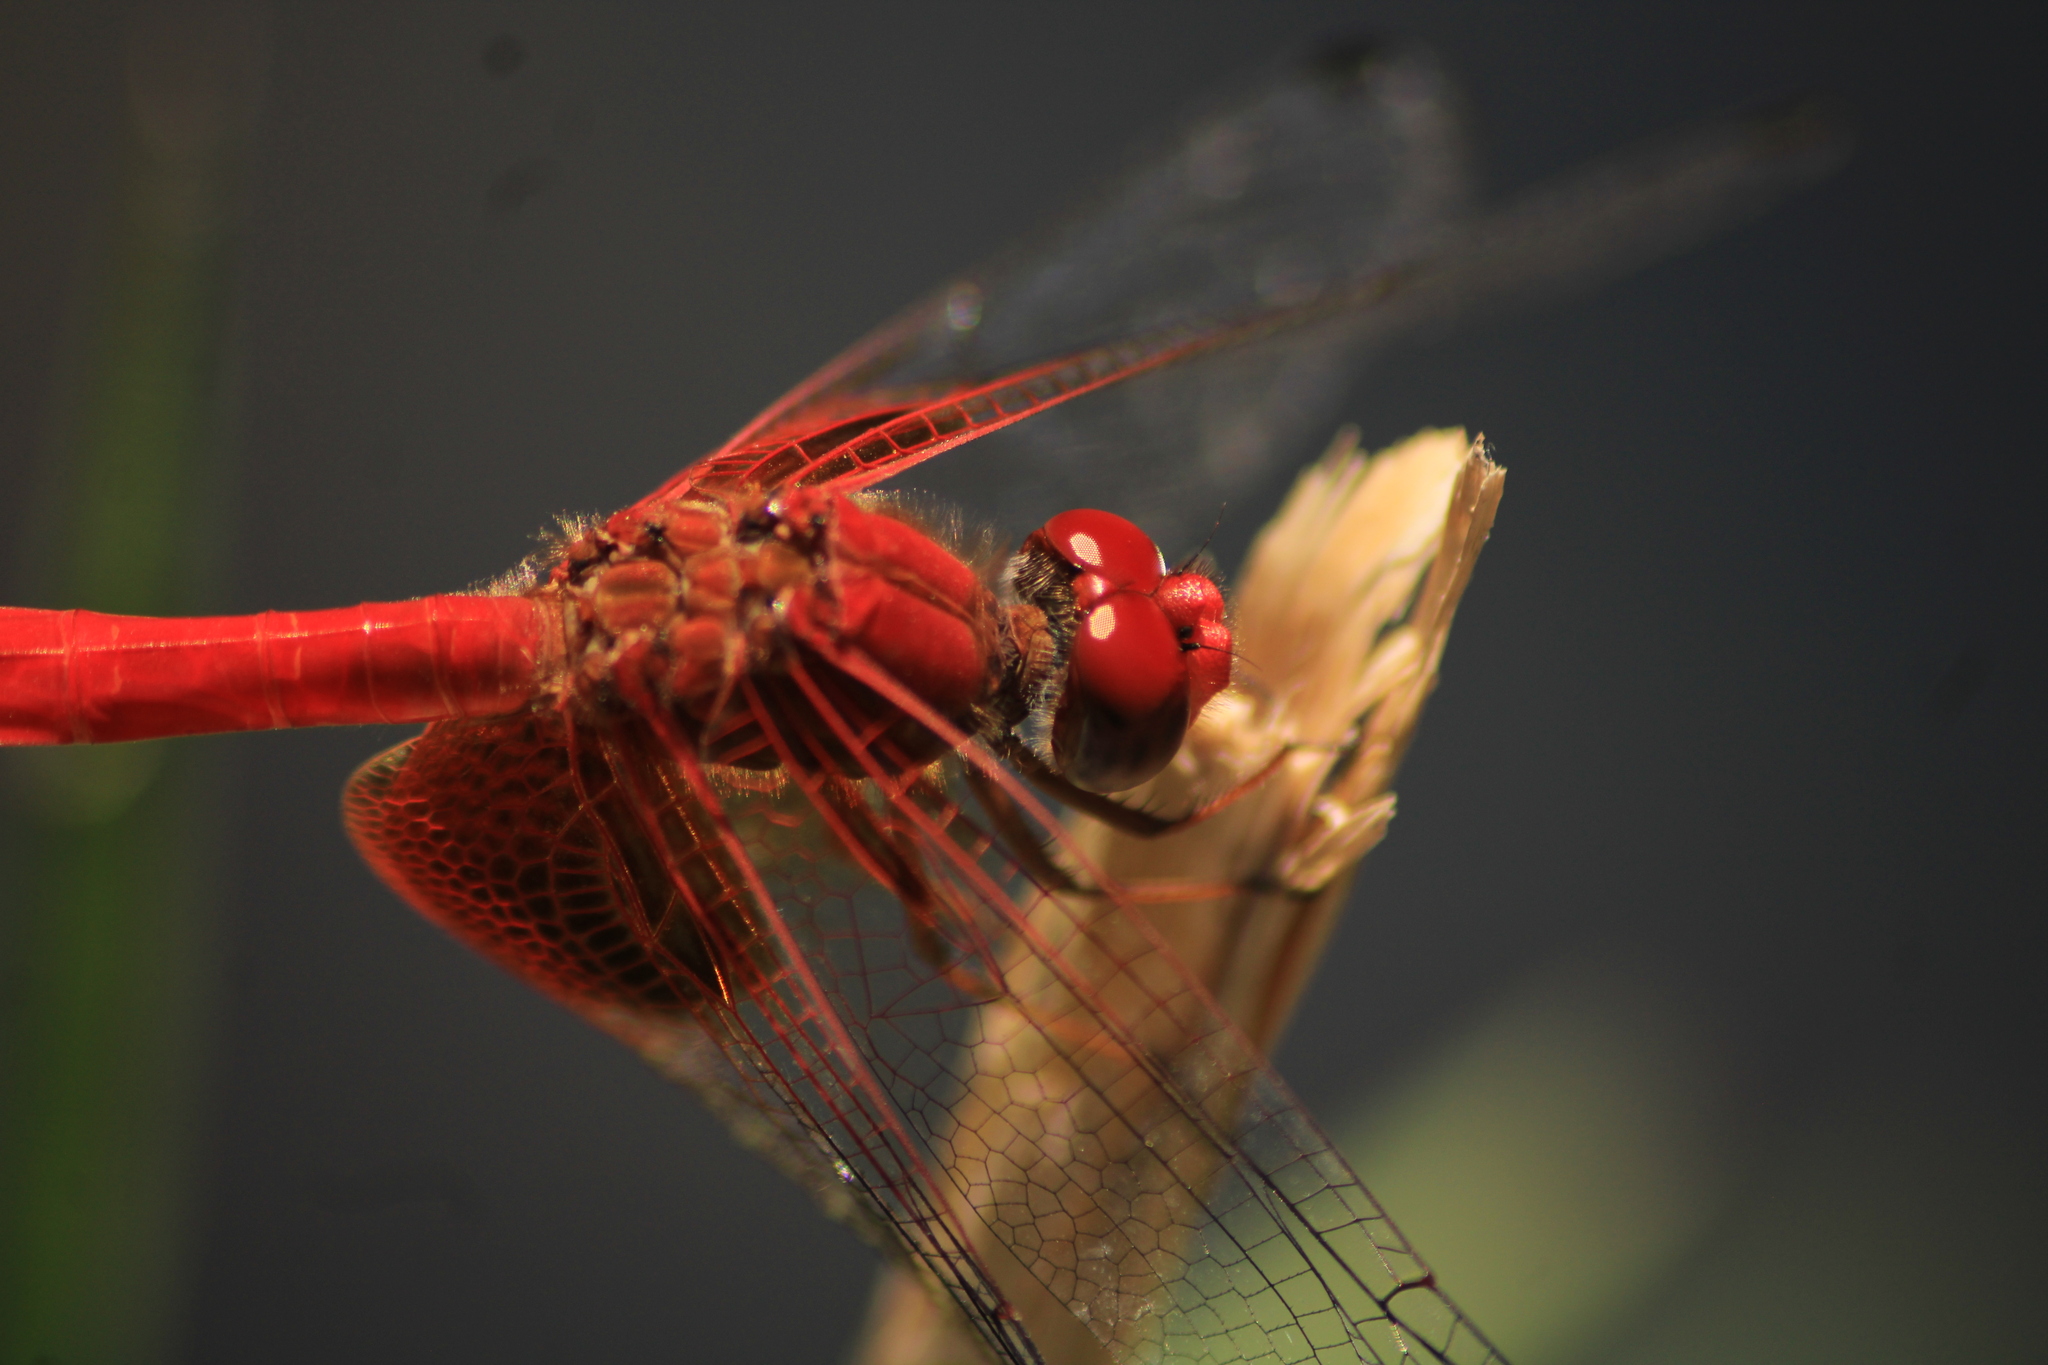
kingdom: Animalia
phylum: Arthropoda
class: Insecta
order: Odonata
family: Libellulidae
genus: Dythemis
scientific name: Dythemis maya
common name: Mayan setwing
